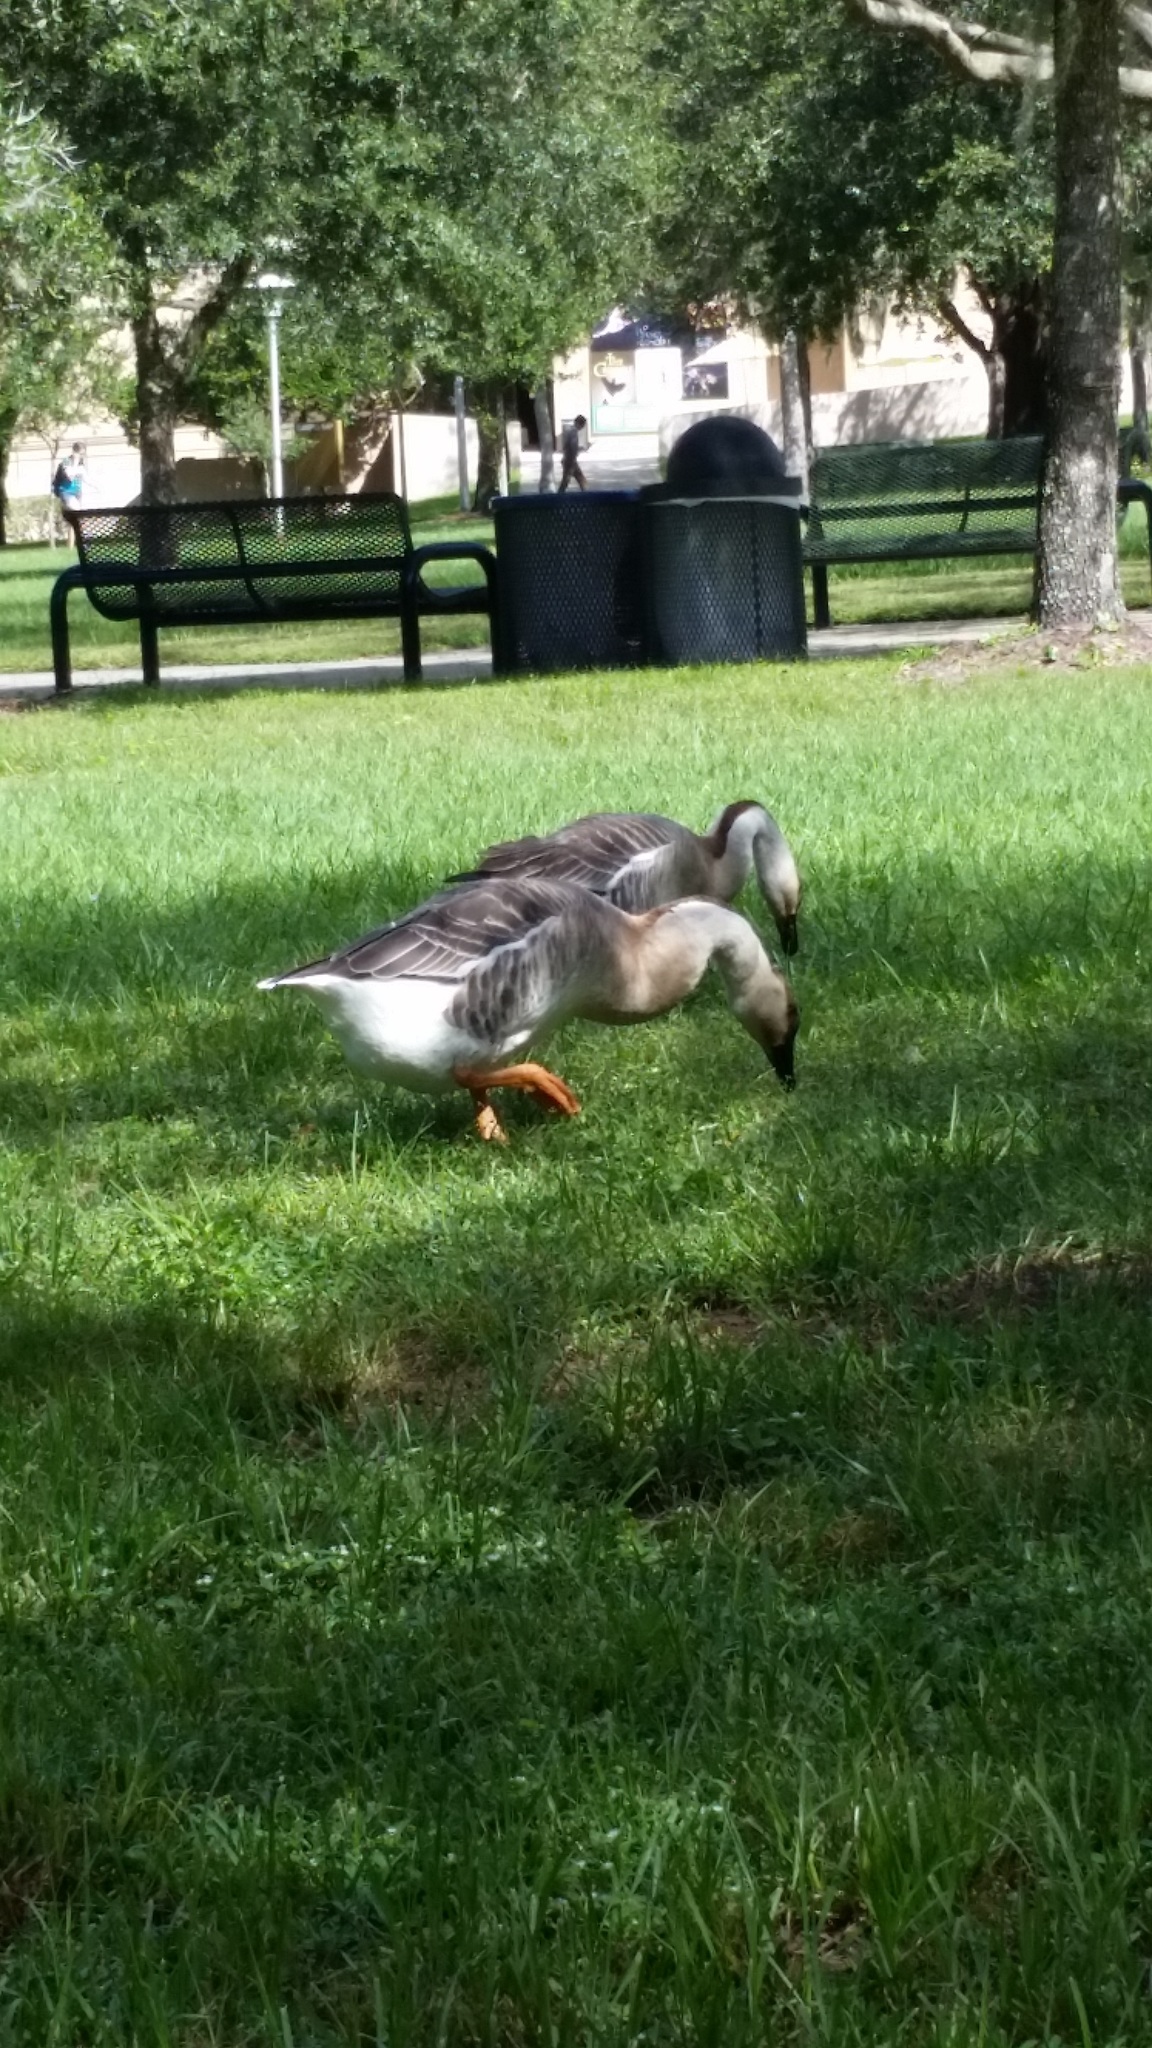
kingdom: Animalia
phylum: Chordata
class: Aves
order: Anseriformes
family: Anatidae
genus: Anser
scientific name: Anser cygnoides
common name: Swan goose
